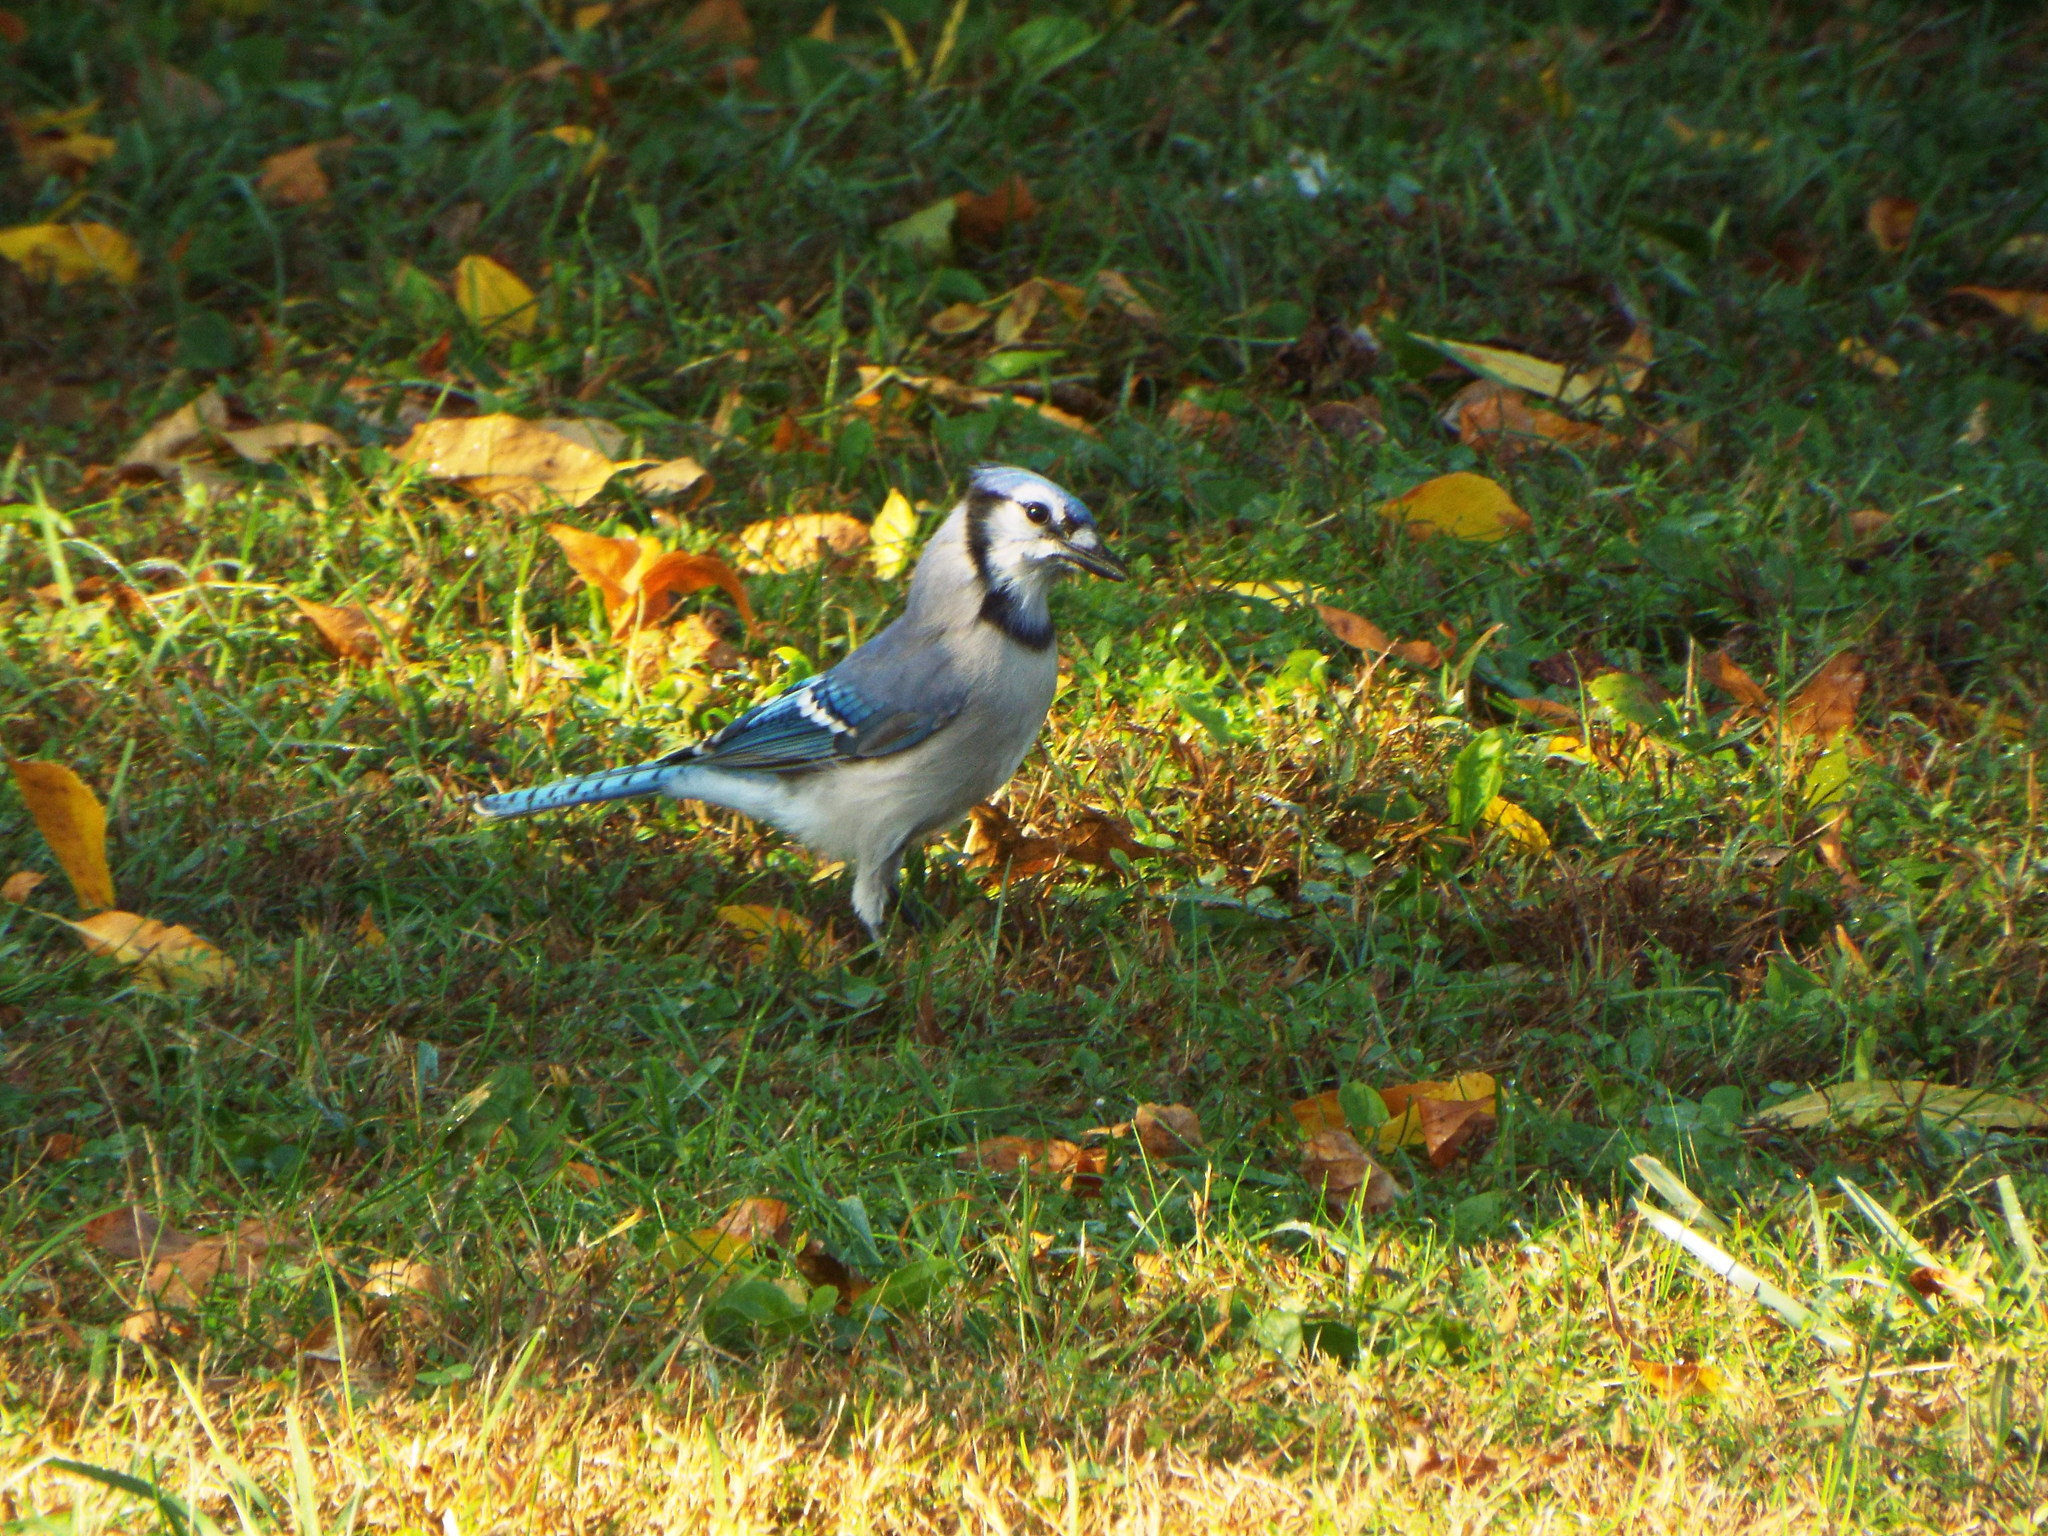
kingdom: Animalia
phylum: Chordata
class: Aves
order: Passeriformes
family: Corvidae
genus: Cyanocitta
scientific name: Cyanocitta cristata
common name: Blue jay
